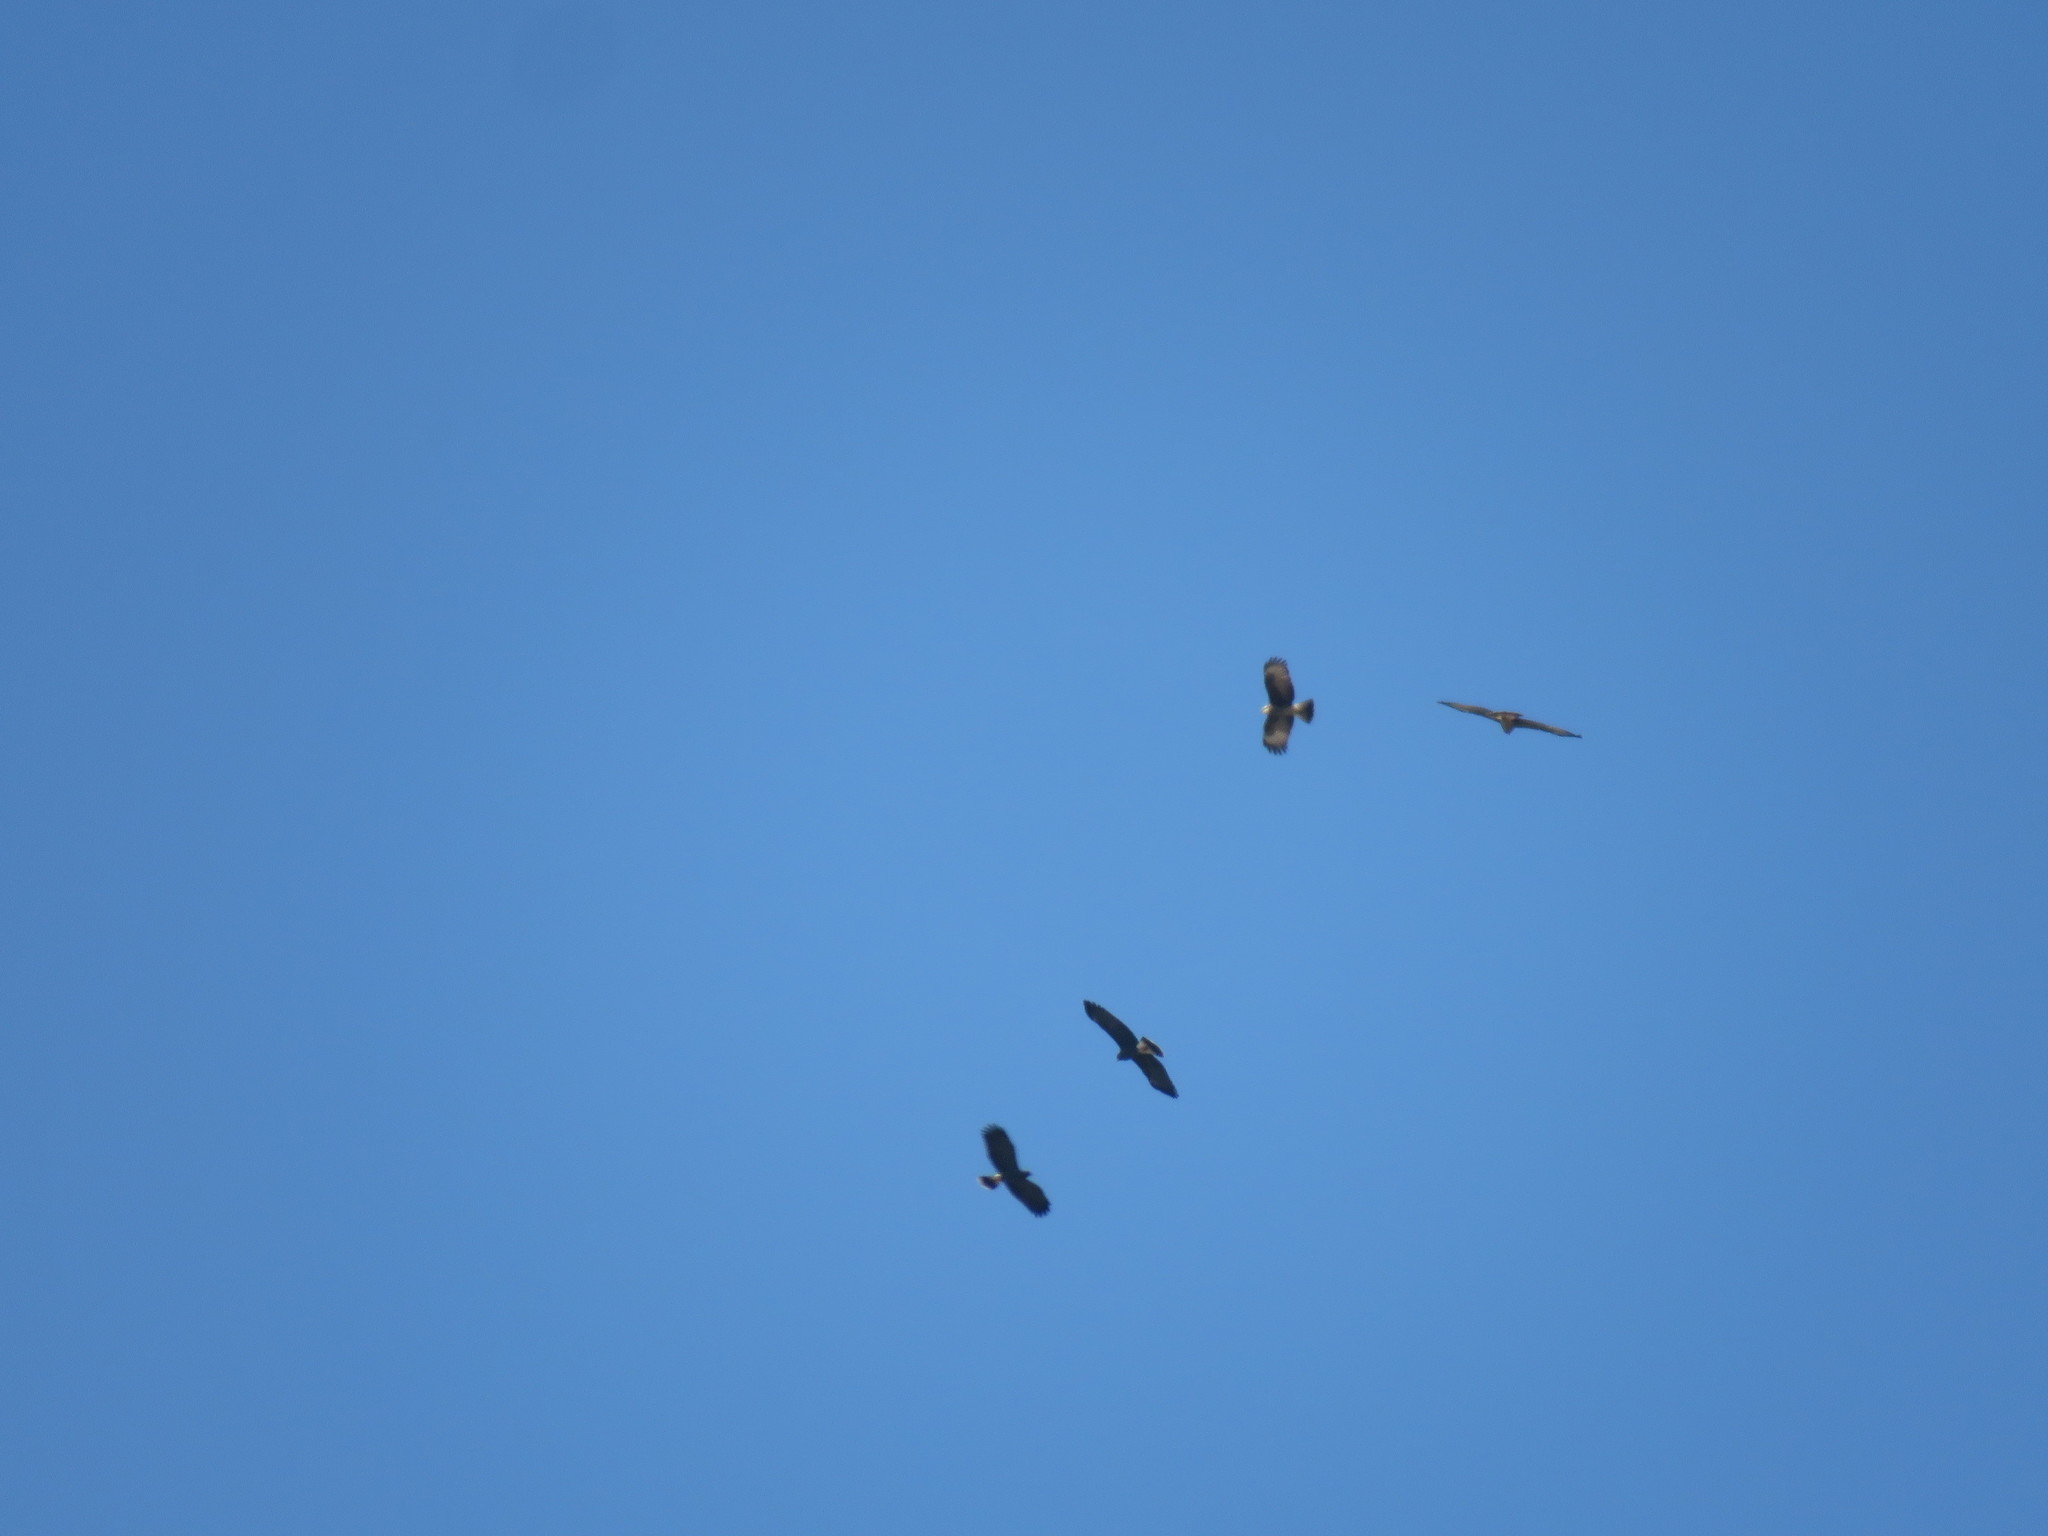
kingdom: Animalia
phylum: Chordata
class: Aves
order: Accipitriformes
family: Accipitridae
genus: Rostrhamus
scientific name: Rostrhamus sociabilis
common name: Snail kite
